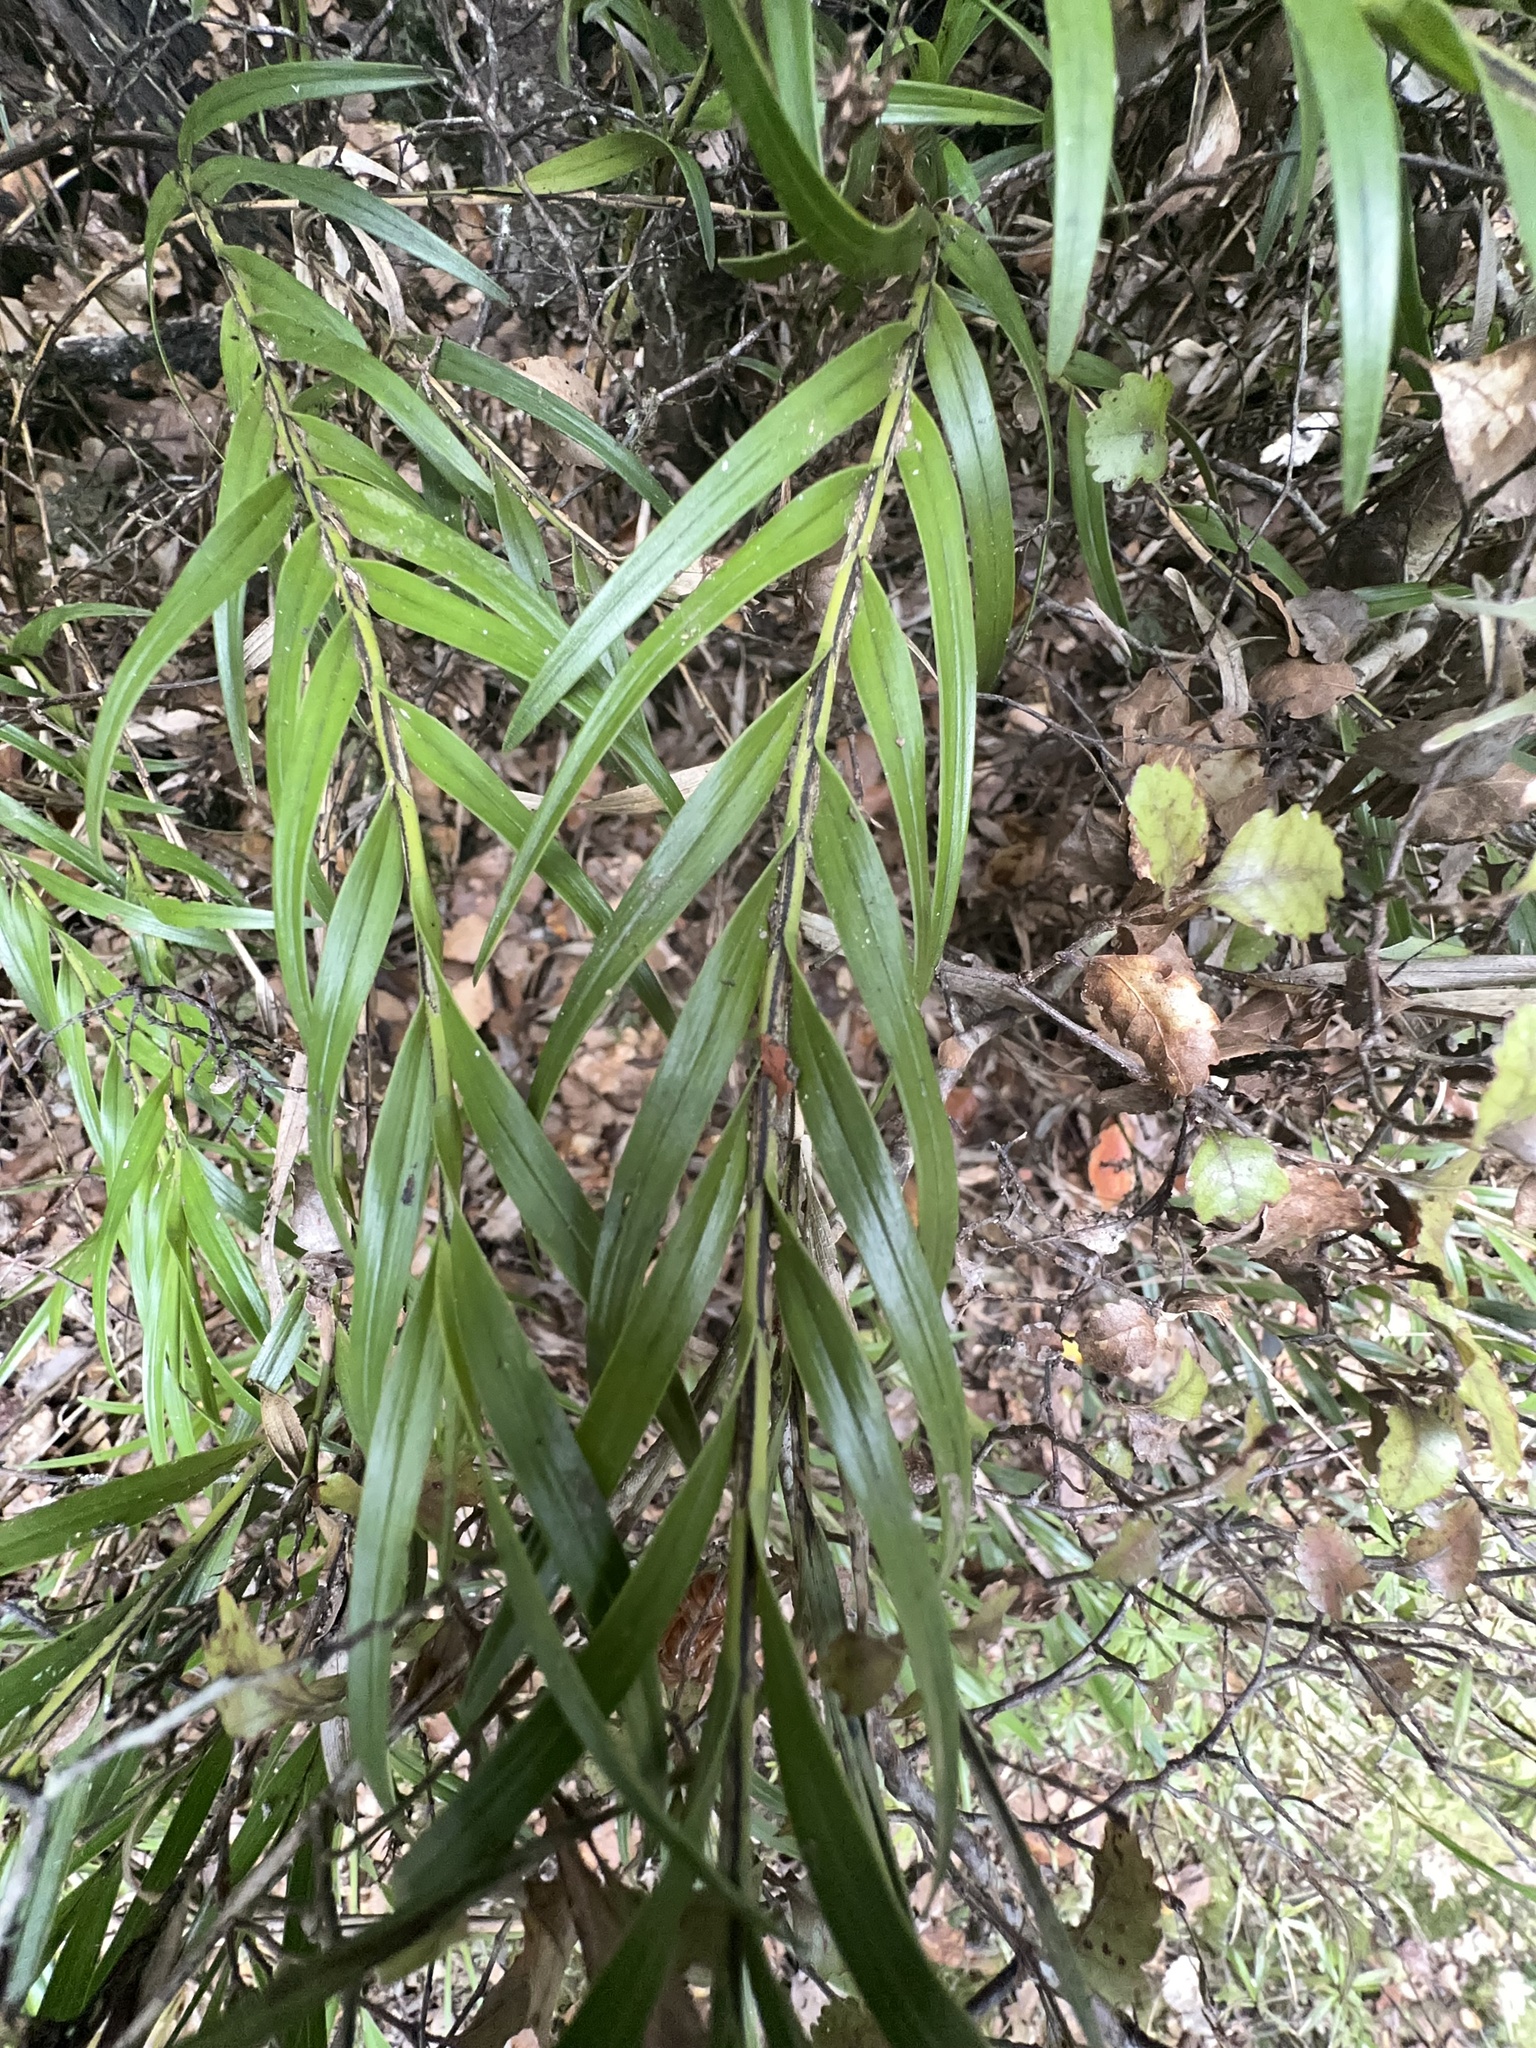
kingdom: Plantae
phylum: Tracheophyta
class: Liliopsida
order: Asparagales
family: Orchidaceae
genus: Earina
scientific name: Earina autumnalis
